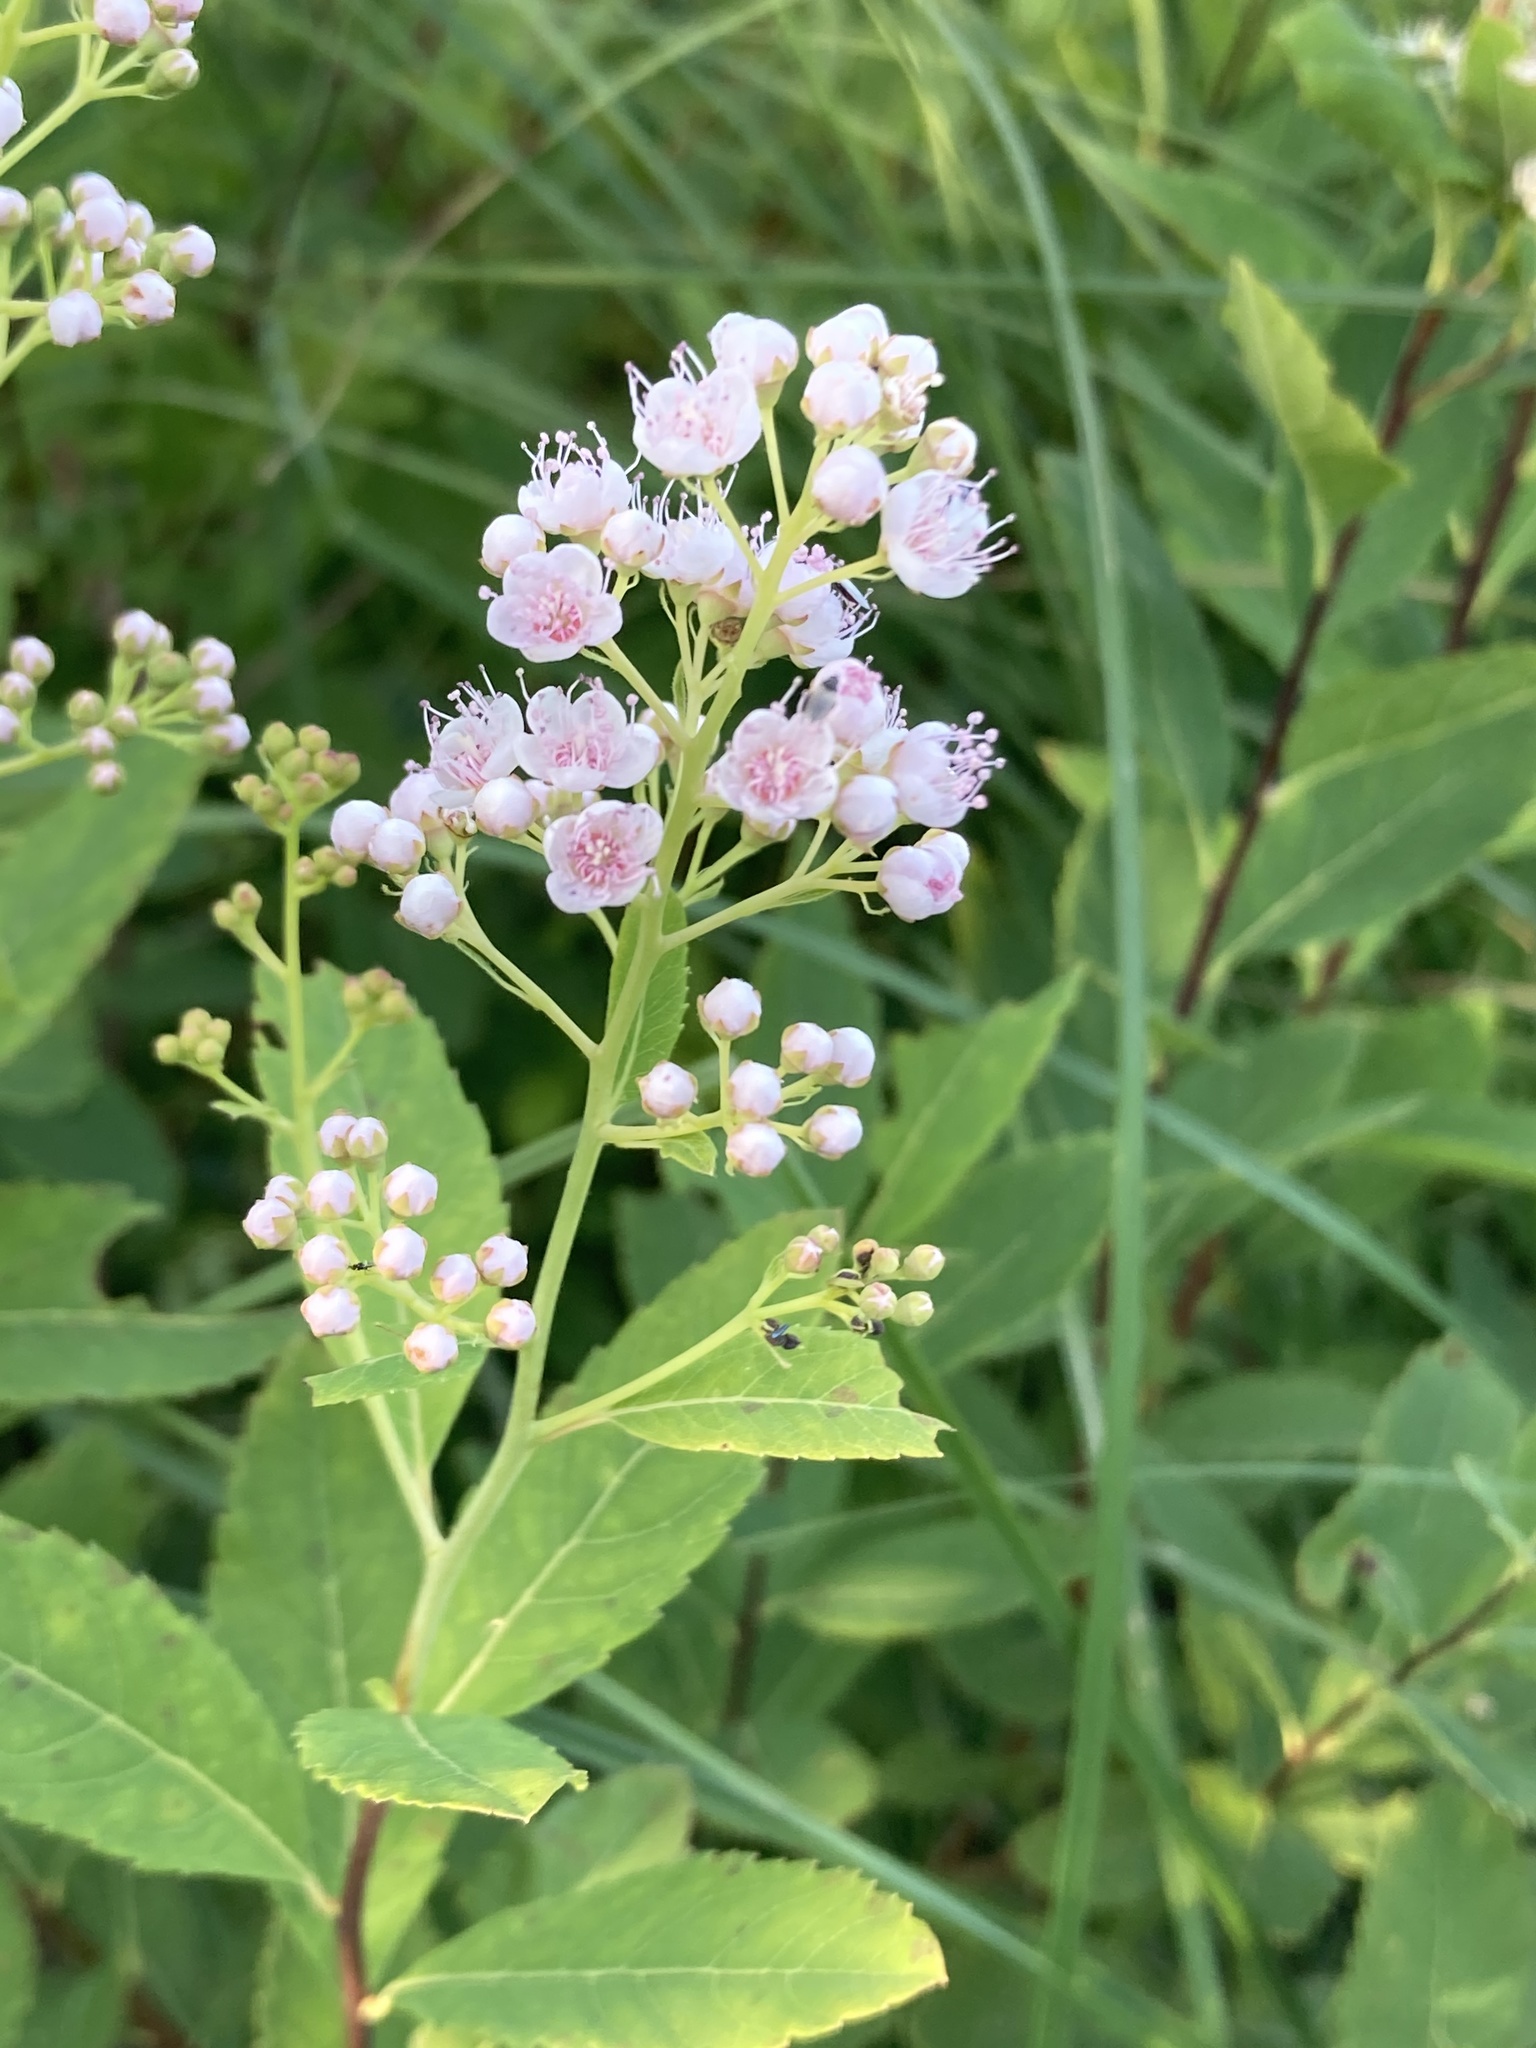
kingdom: Plantae
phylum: Tracheophyta
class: Magnoliopsida
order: Rosales
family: Rosaceae
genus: Spiraea
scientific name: Spiraea alba
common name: Pale bridewort
